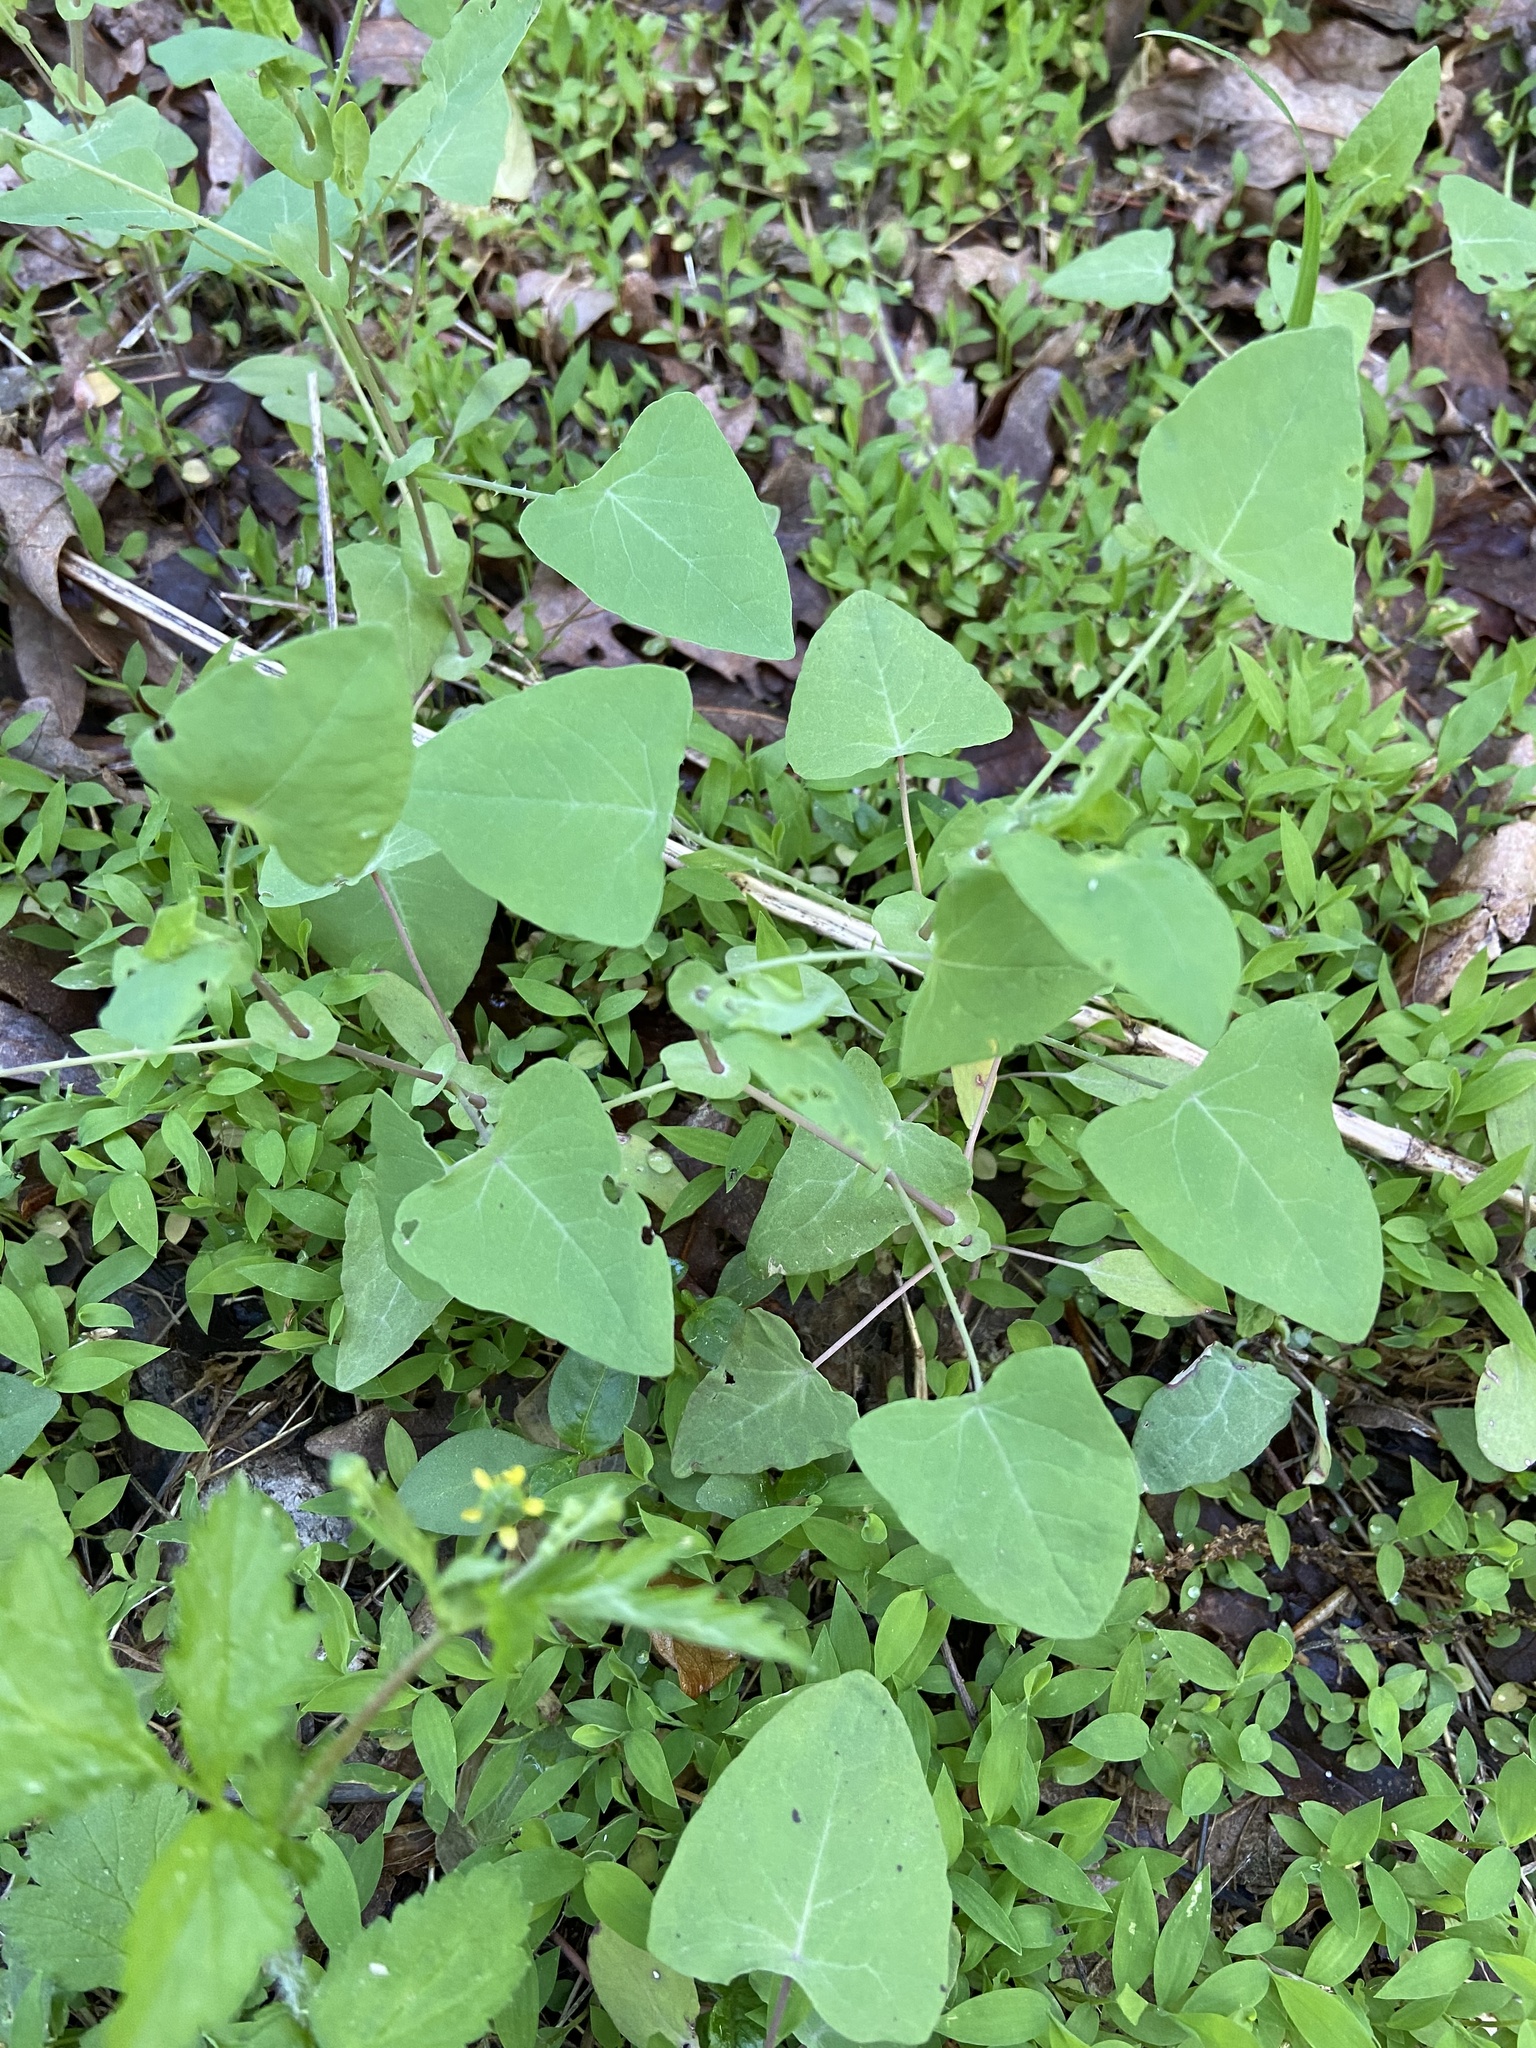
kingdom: Plantae
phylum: Tracheophyta
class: Magnoliopsida
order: Caryophyllales
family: Polygonaceae
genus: Persicaria
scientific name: Persicaria perfoliata
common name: Asiatic tearthumb
